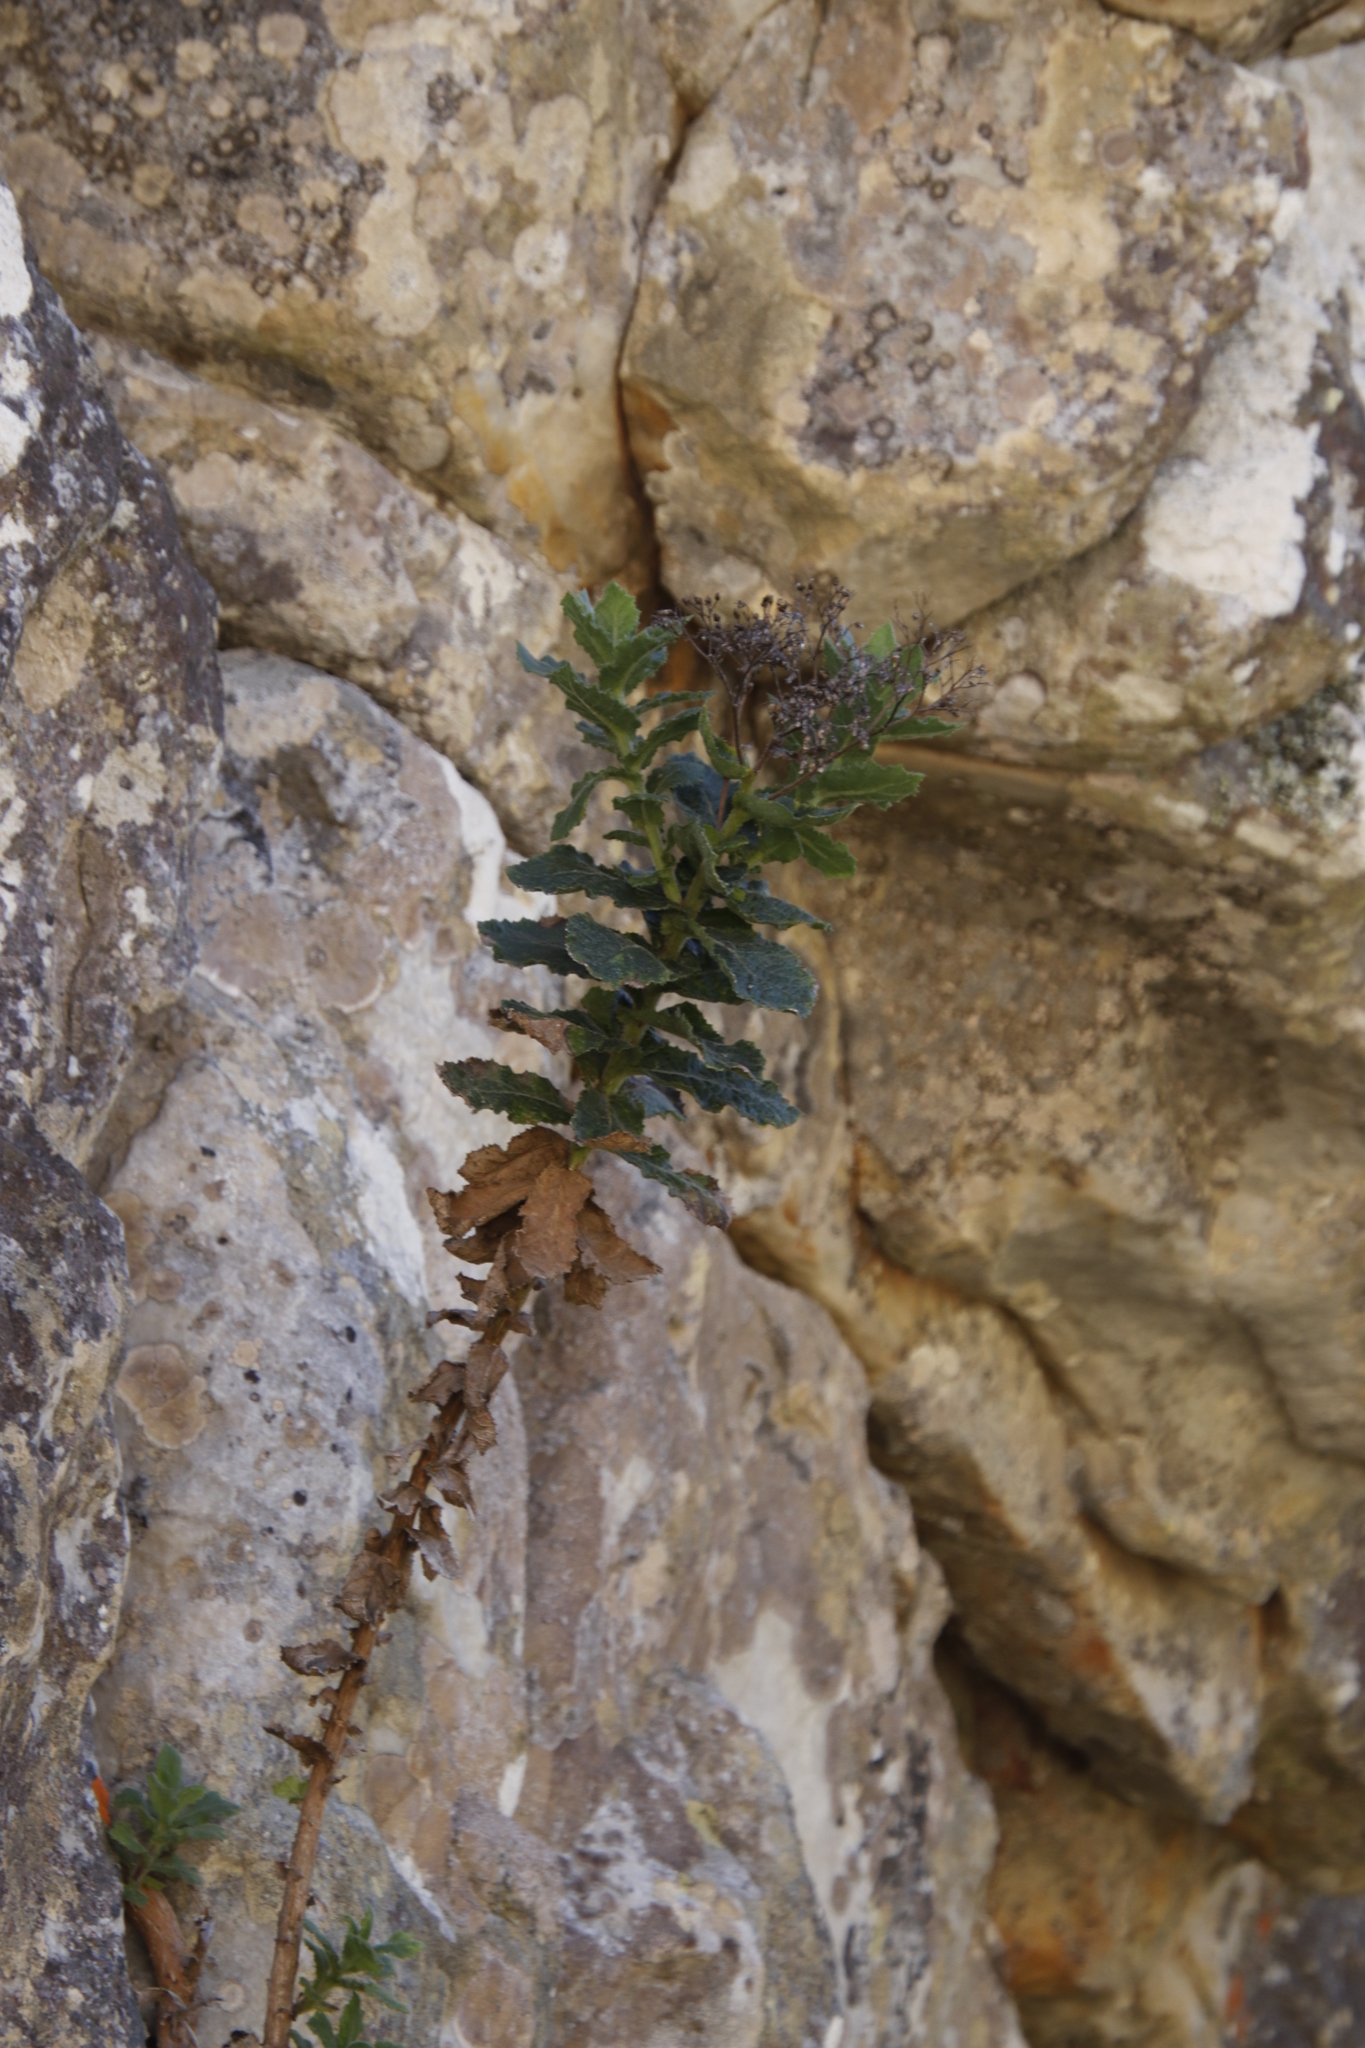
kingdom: Plantae
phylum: Tracheophyta
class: Magnoliopsida
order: Asterales
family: Asteraceae
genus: Senecio
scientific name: Senecio rigidus
